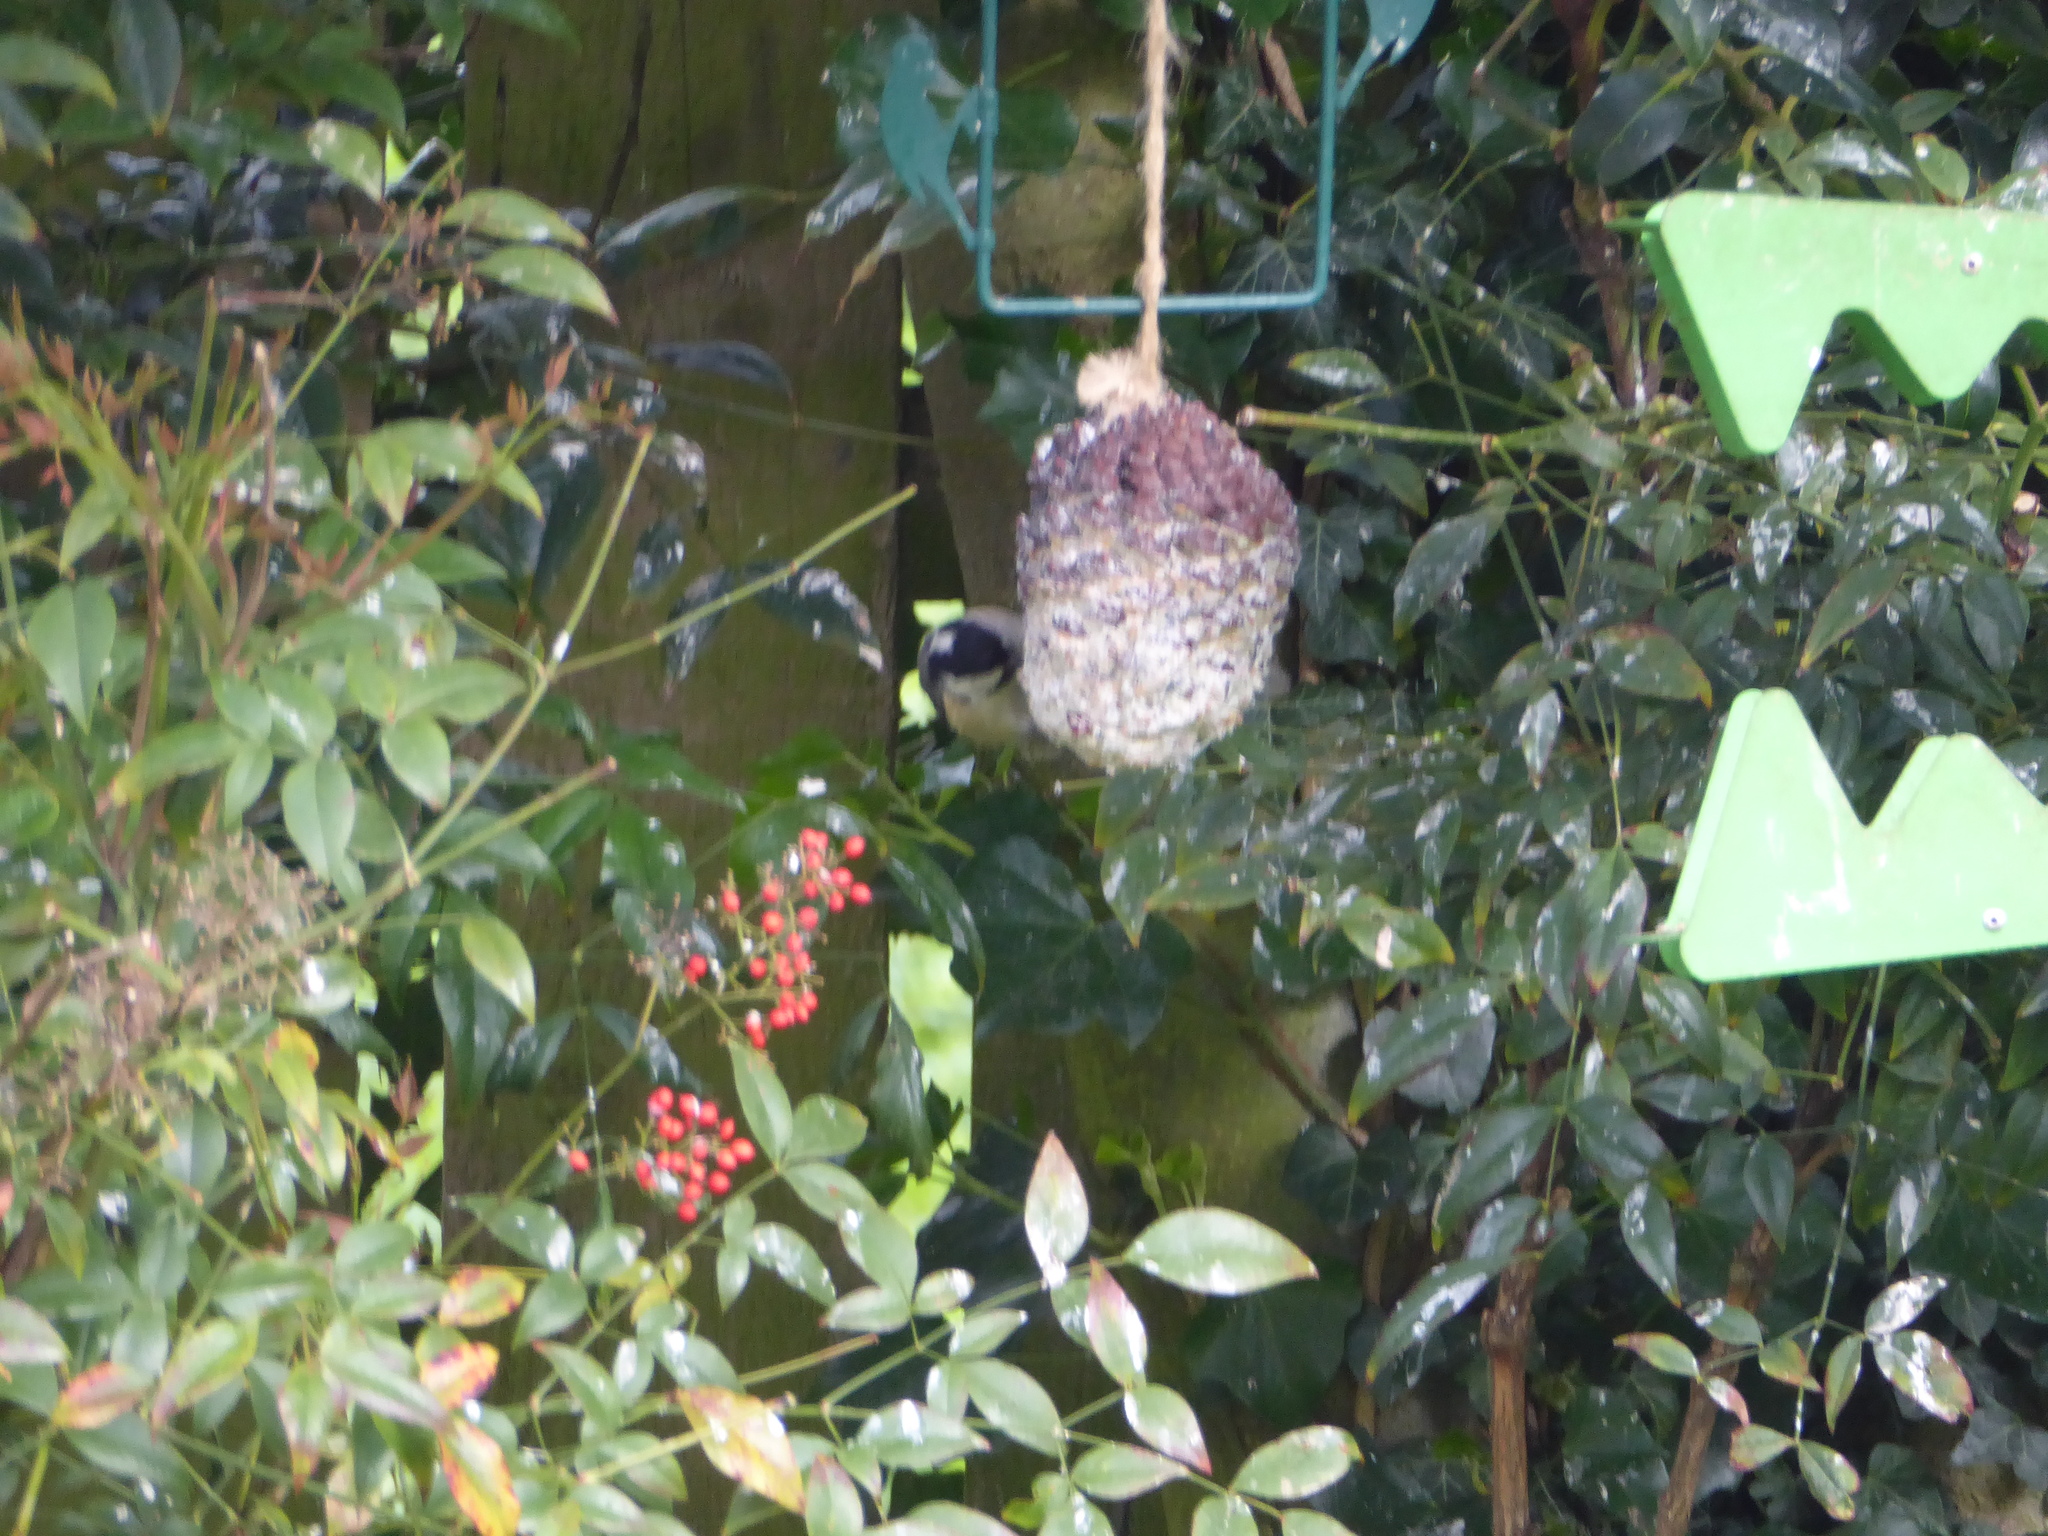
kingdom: Animalia
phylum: Chordata
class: Aves
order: Passeriformes
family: Paridae
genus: Periparus
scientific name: Periparus ater
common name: Coal tit
